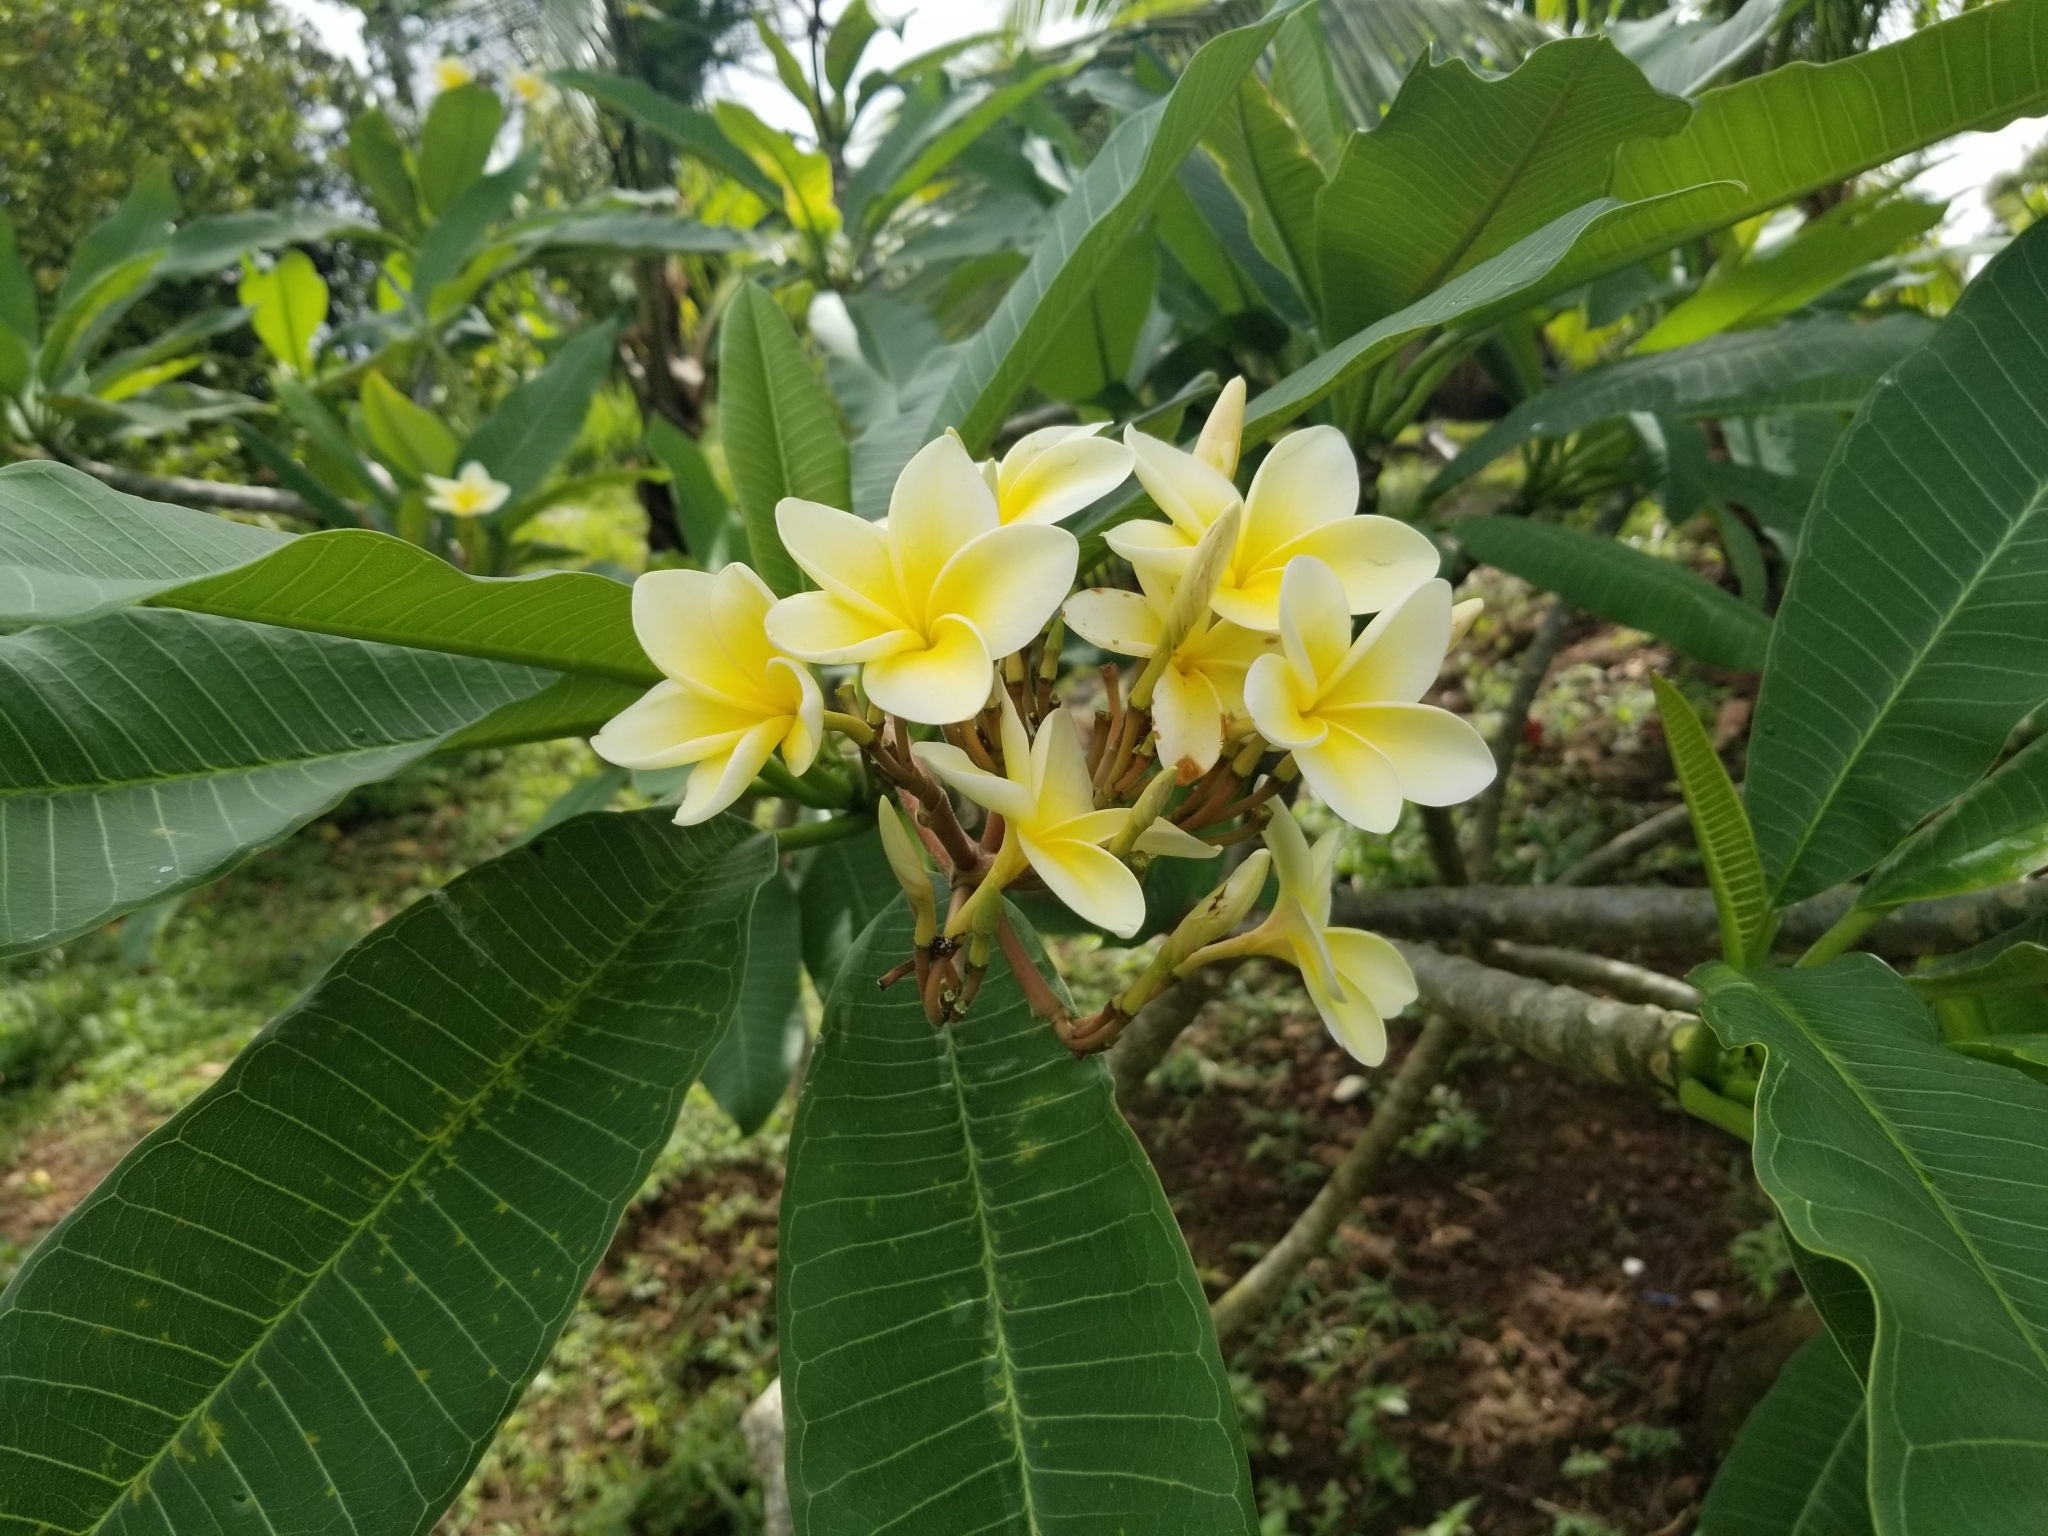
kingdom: Plantae
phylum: Tracheophyta
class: Magnoliopsida
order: Gentianales
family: Apocynaceae
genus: Plumeria
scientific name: Plumeria rubra
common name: Pagoda-tree
